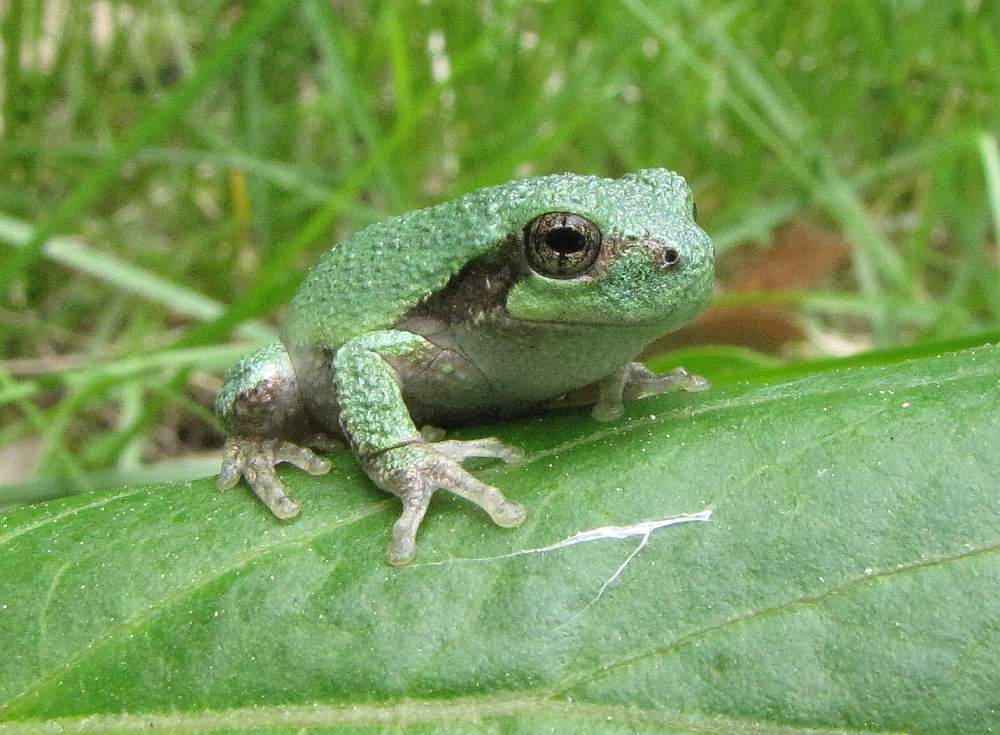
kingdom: Animalia
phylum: Chordata
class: Amphibia
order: Anura
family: Hylidae
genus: Dryophytes
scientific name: Dryophytes versicolor
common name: Gray treefrog
